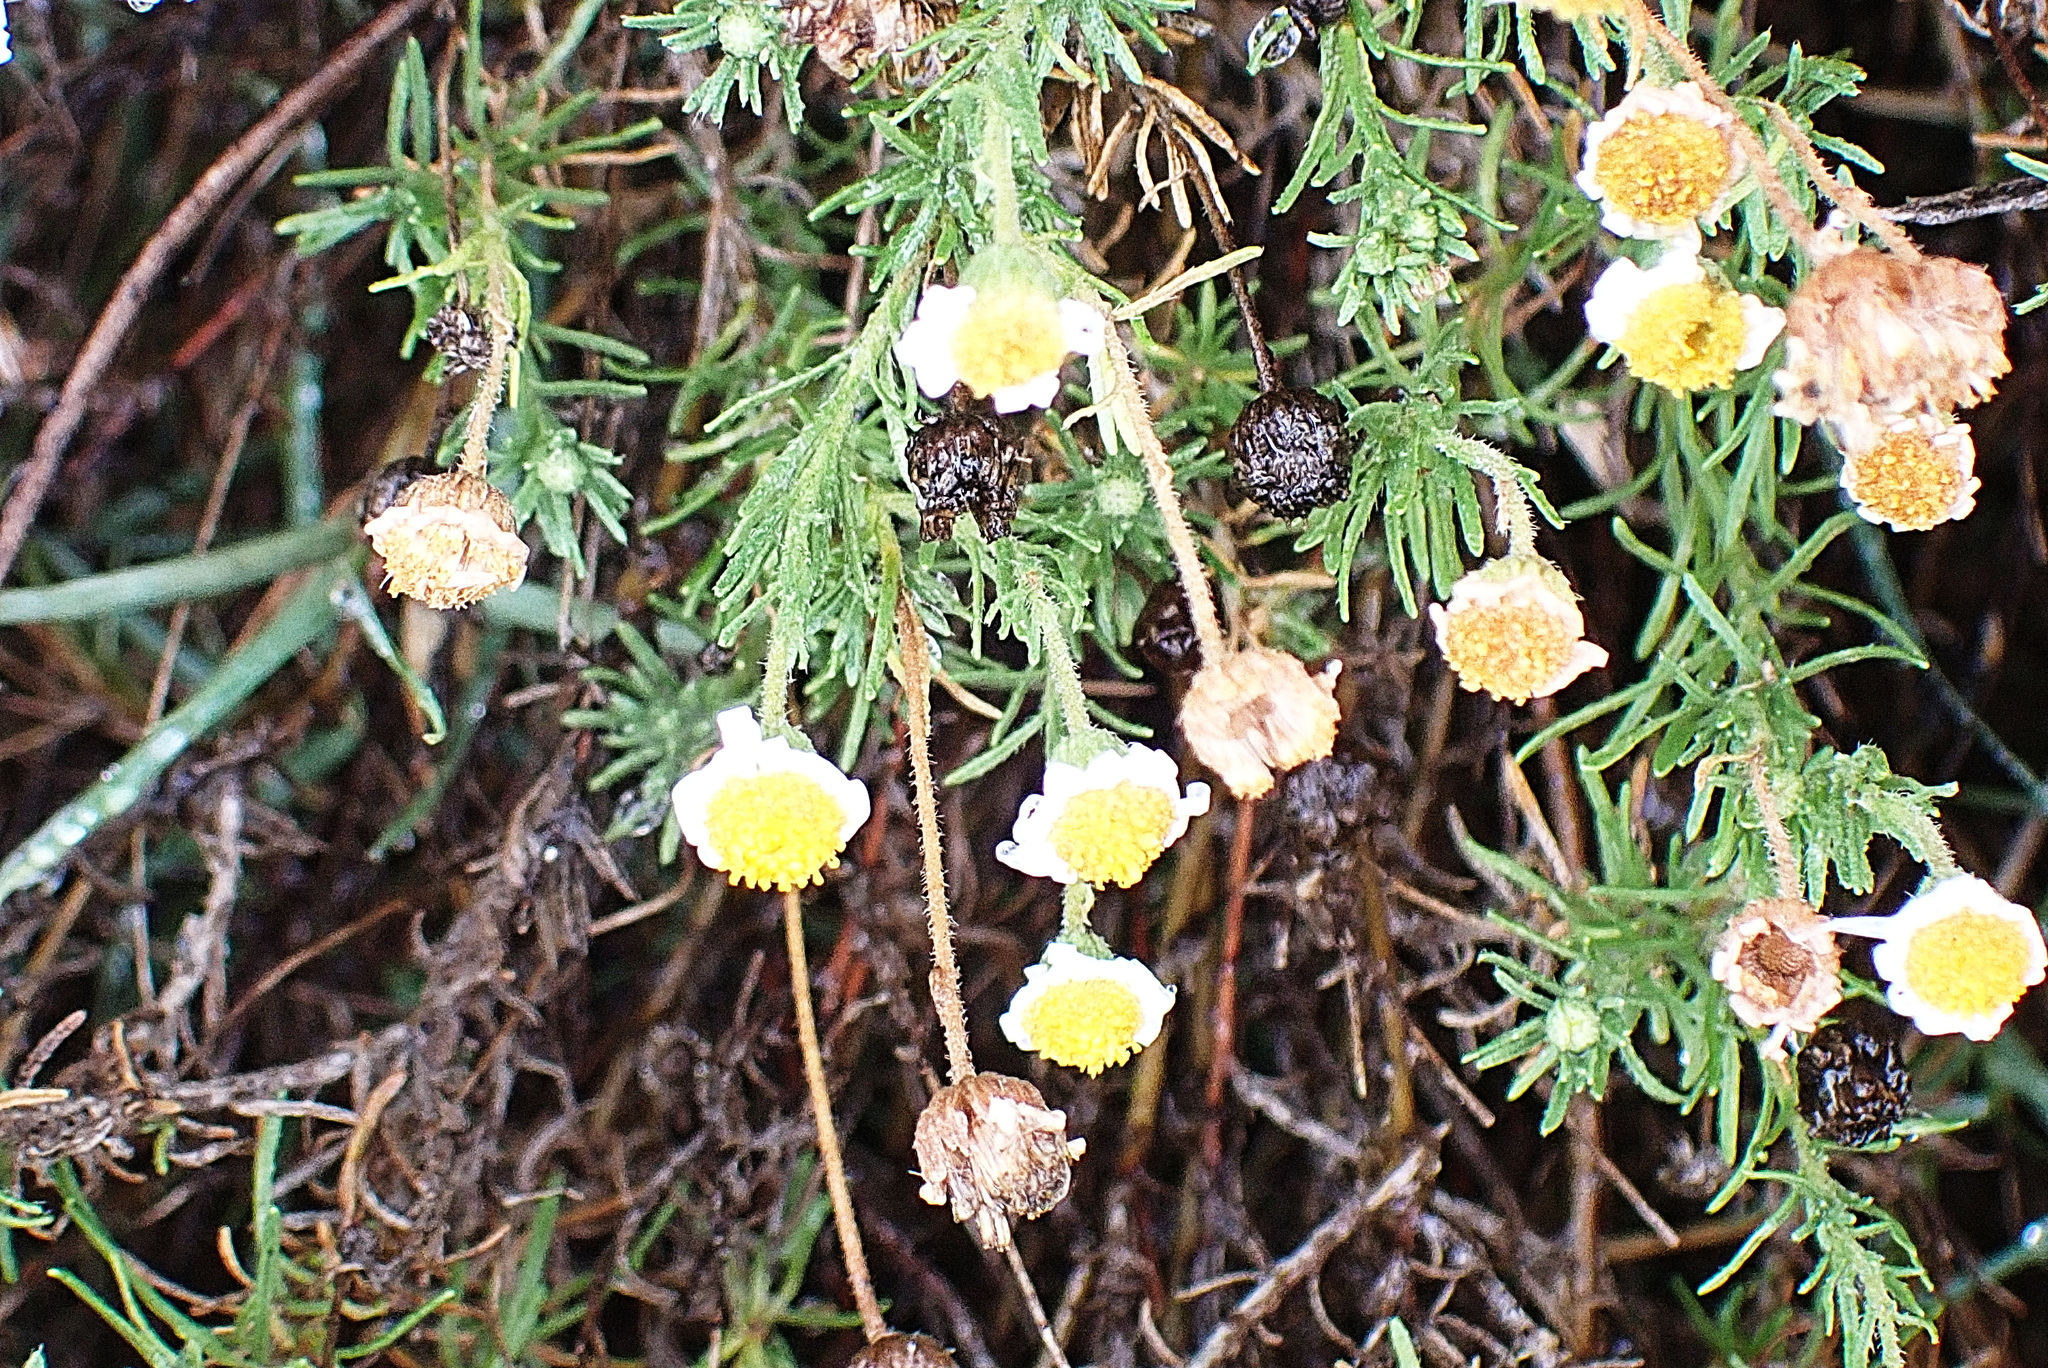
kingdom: Plantae
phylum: Tracheophyta
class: Magnoliopsida
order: Asterales
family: Asteraceae
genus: Felicia
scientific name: Felicia muricata
